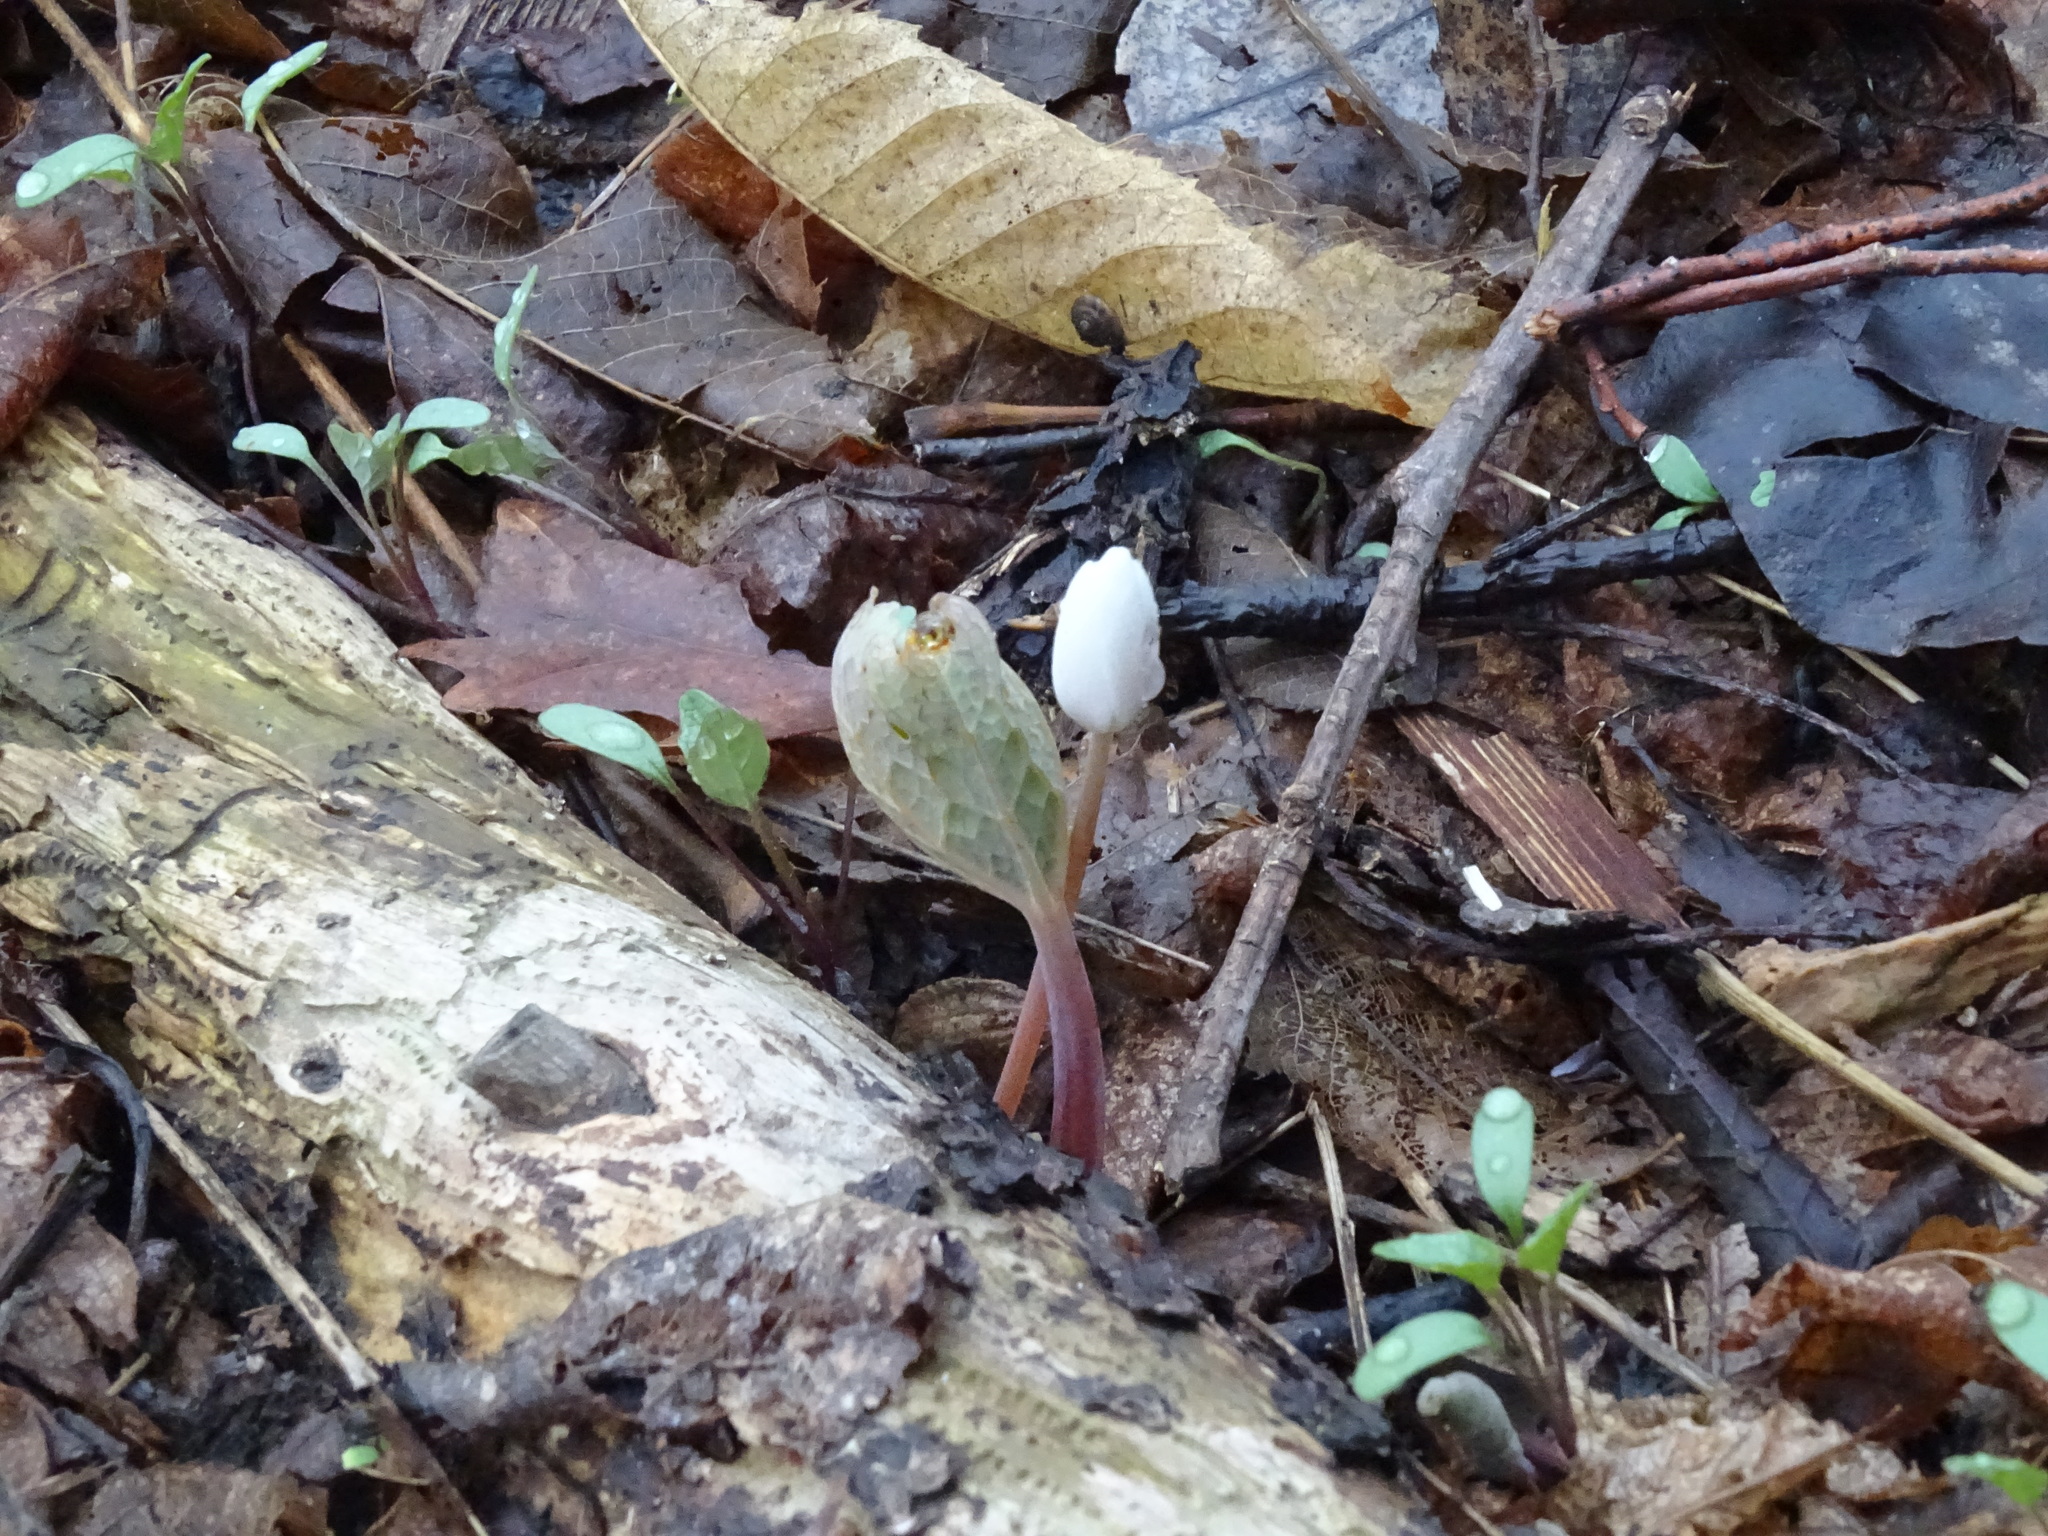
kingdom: Plantae
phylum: Tracheophyta
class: Magnoliopsida
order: Ranunculales
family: Papaveraceae
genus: Sanguinaria
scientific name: Sanguinaria canadensis
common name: Bloodroot
